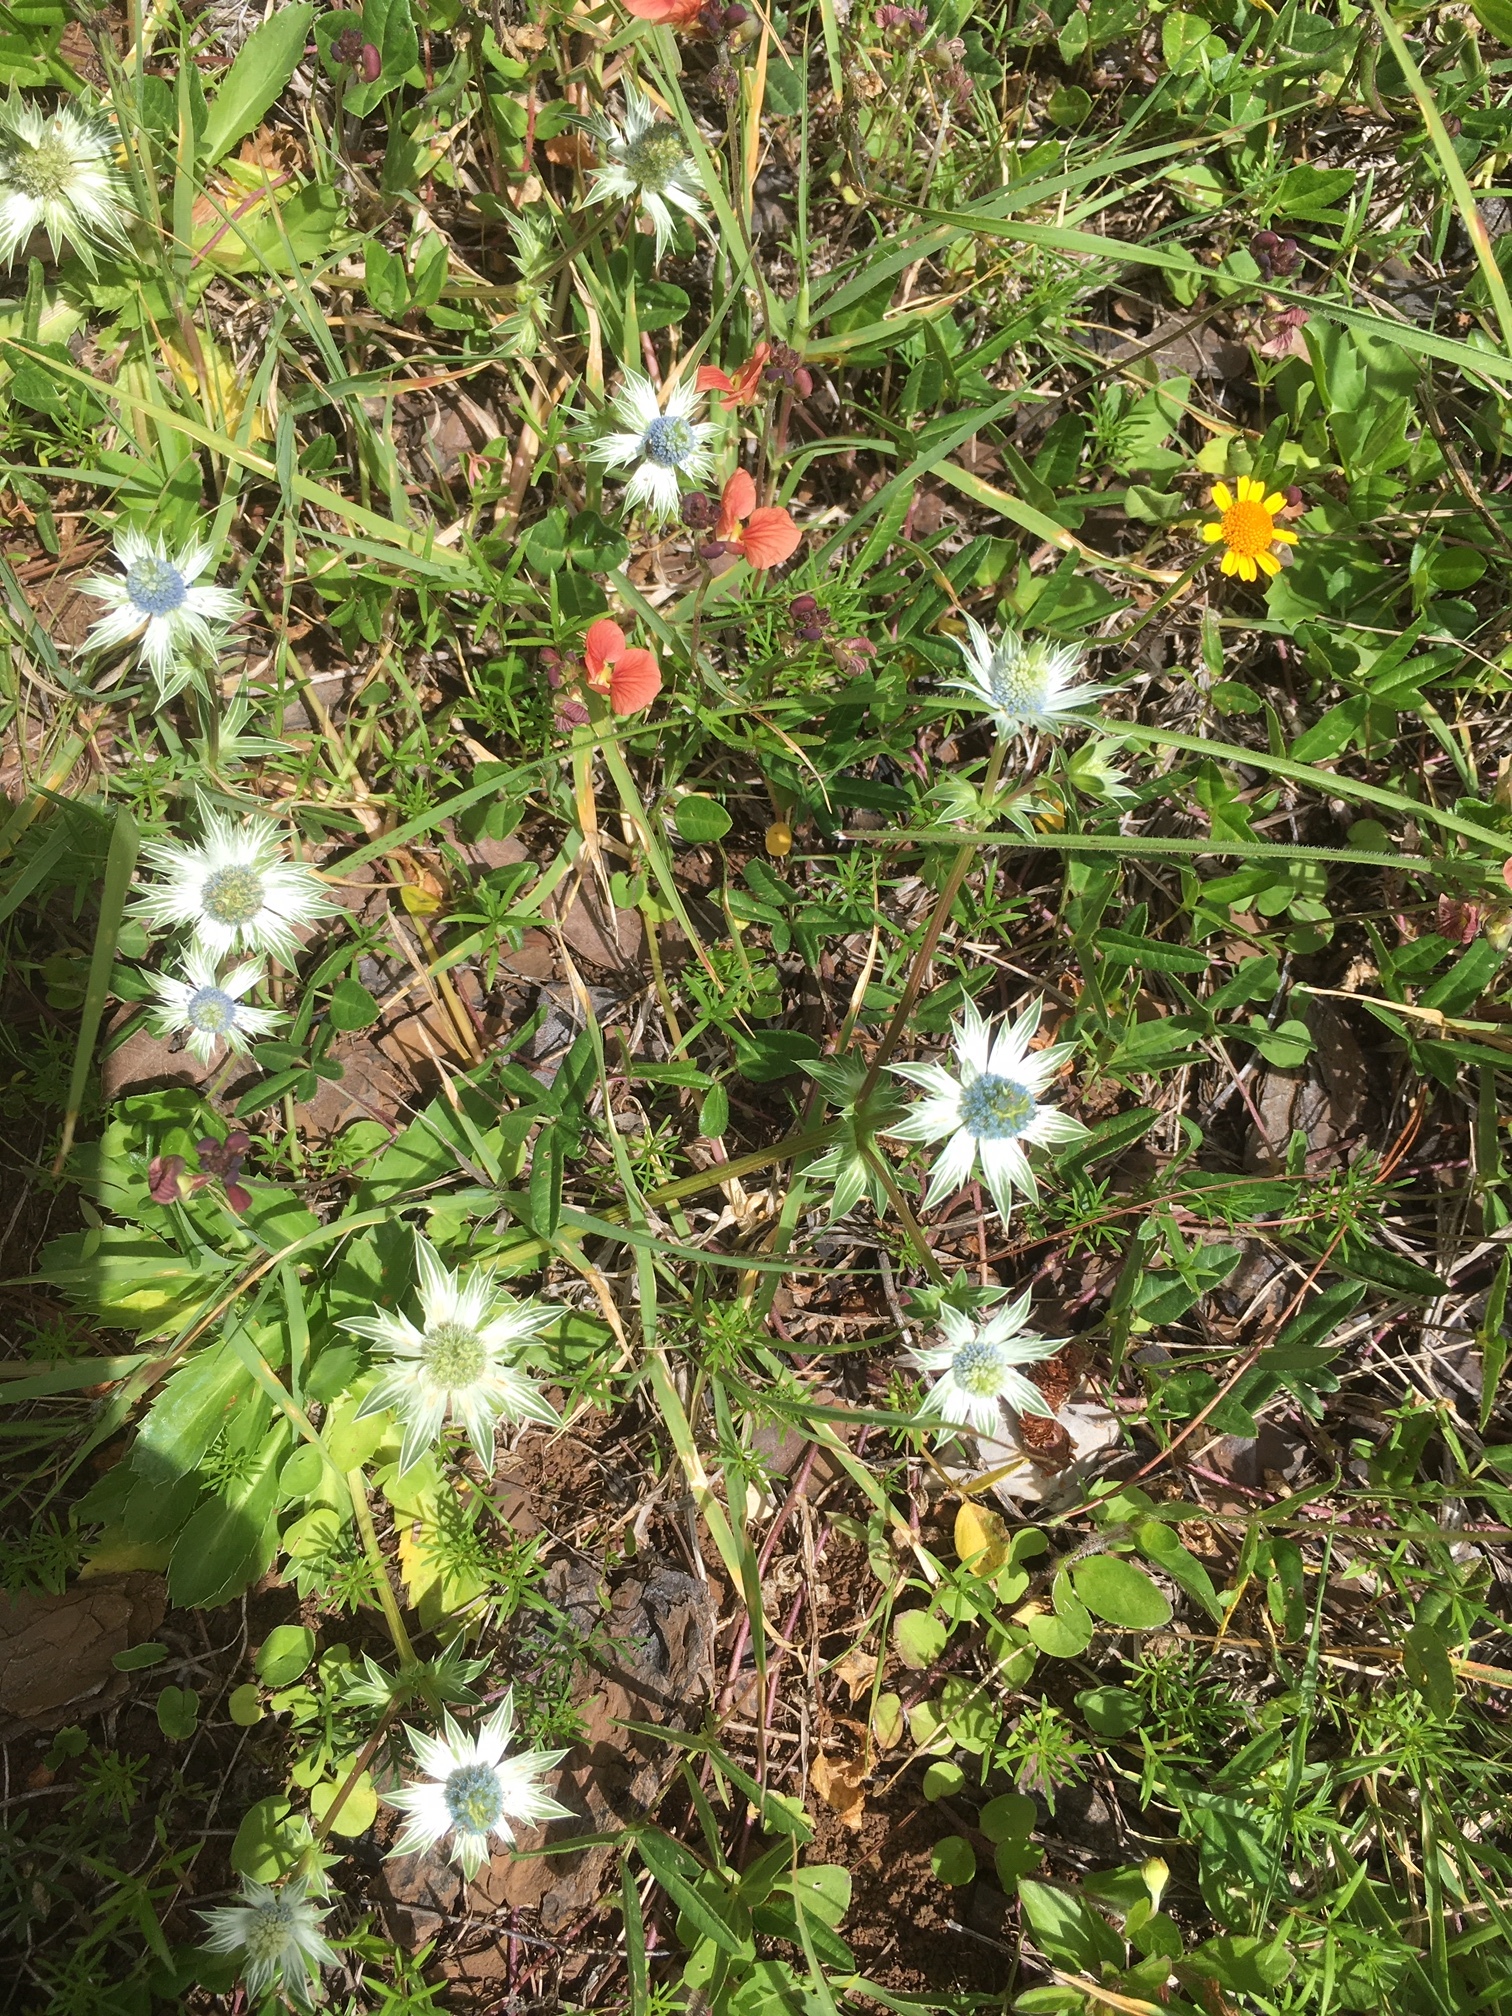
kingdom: Plantae
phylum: Tracheophyta
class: Magnoliopsida
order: Apiales
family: Apiaceae
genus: Eryngium
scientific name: Eryngium carlinae
